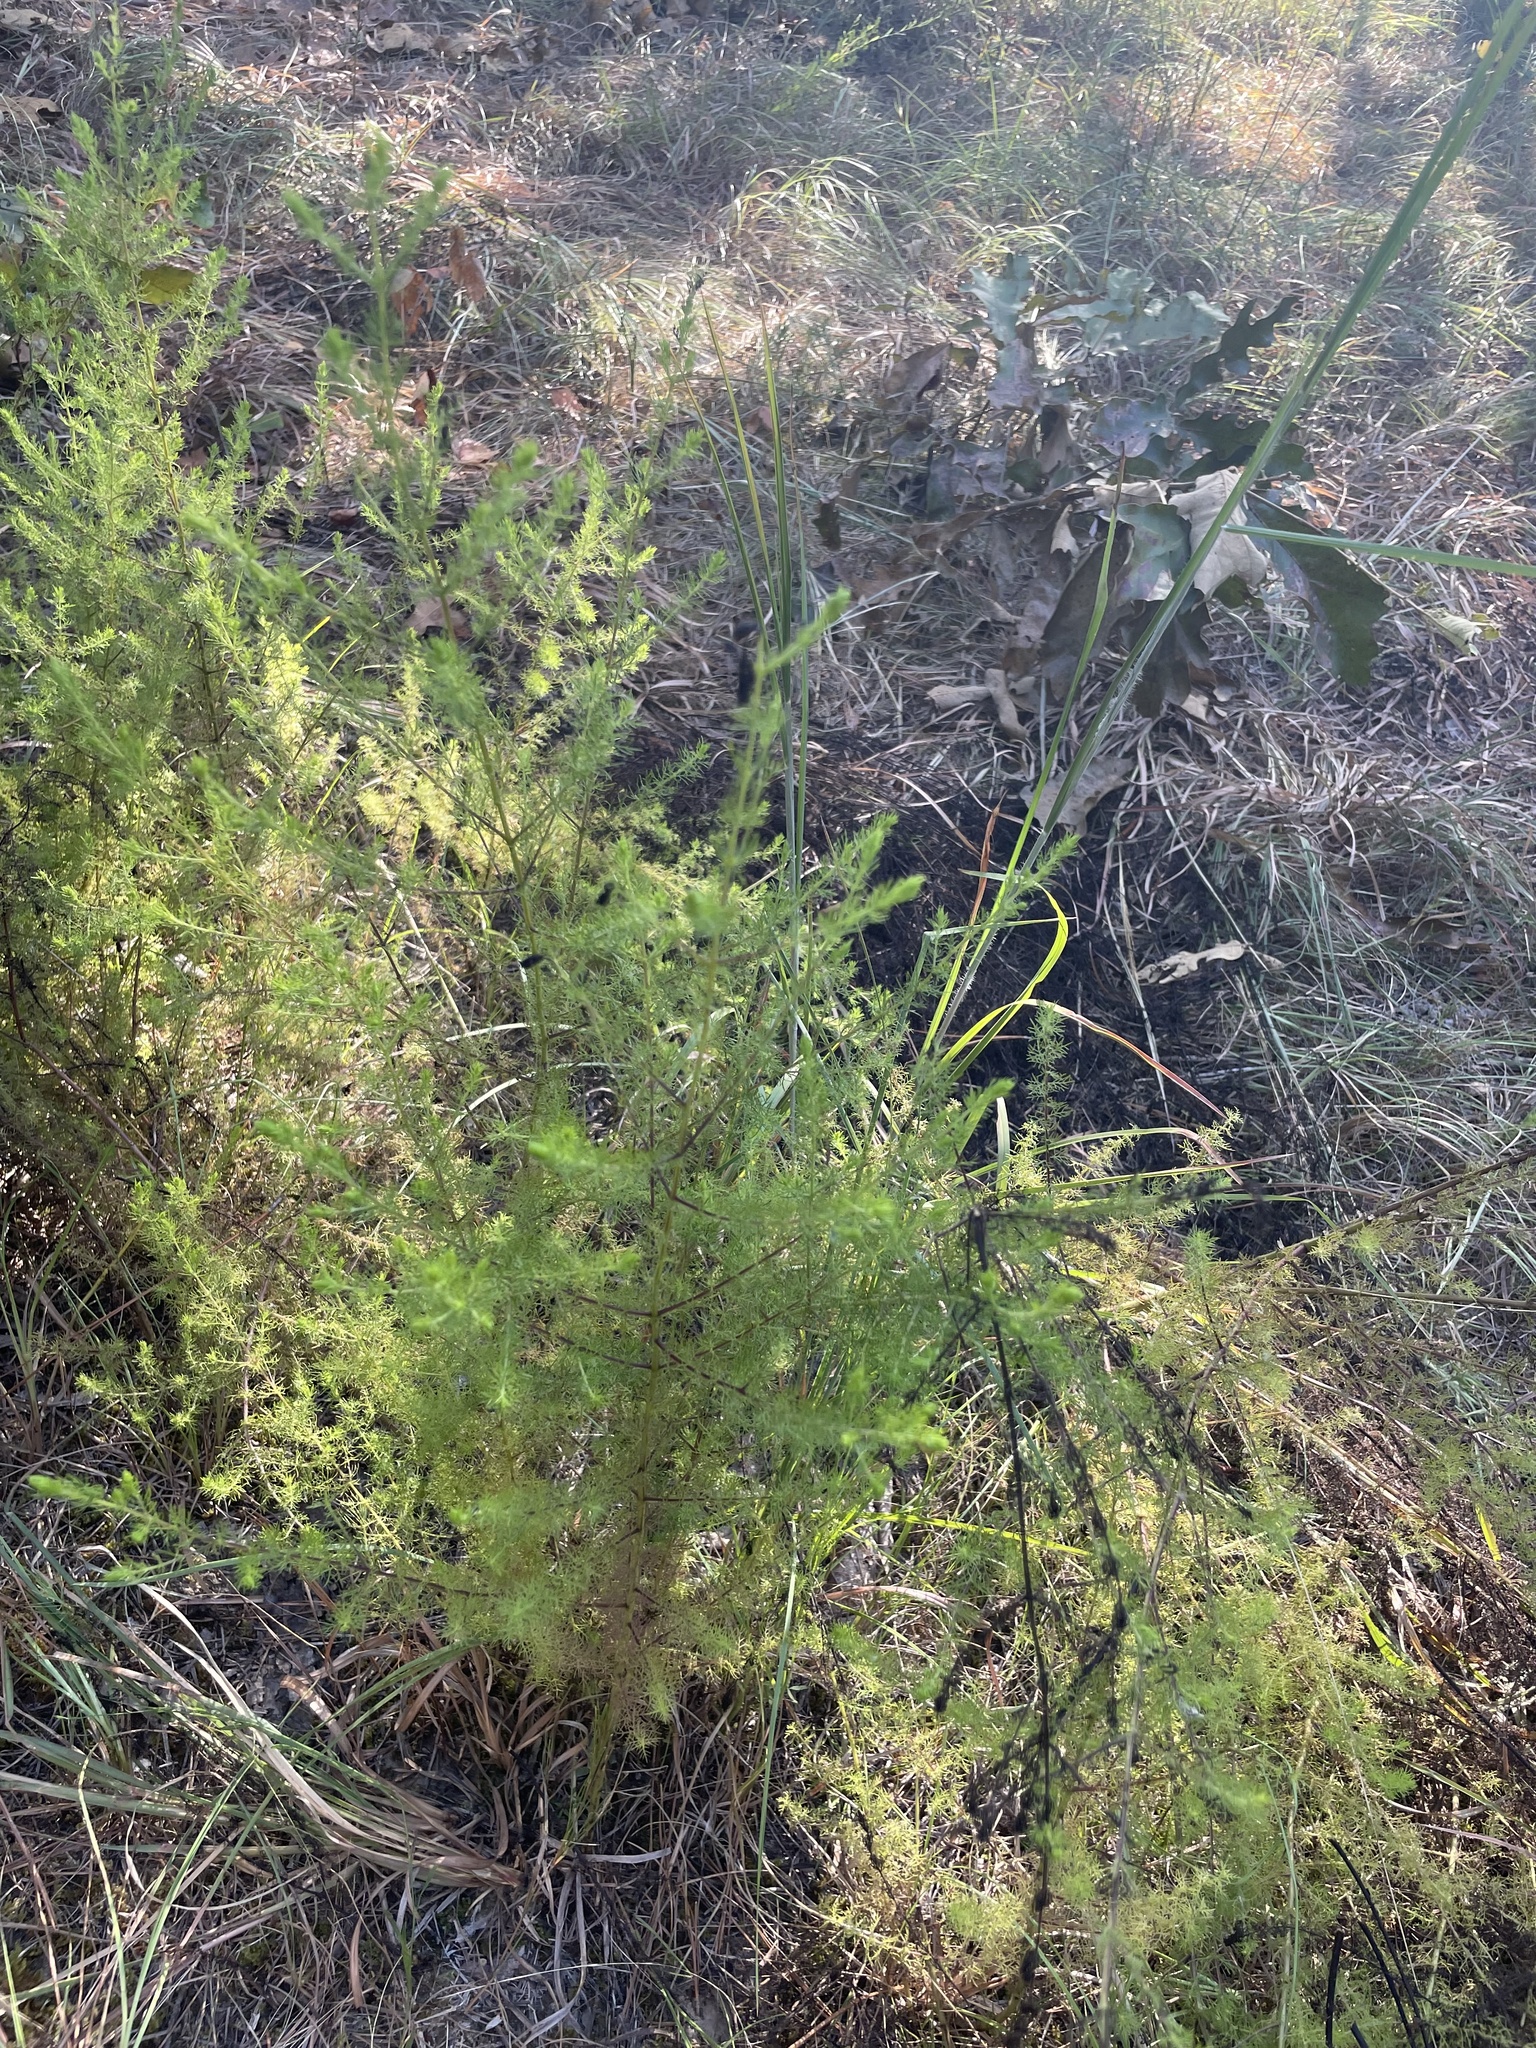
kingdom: Plantae
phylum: Tracheophyta
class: Magnoliopsida
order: Lamiales
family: Orobanchaceae
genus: Seymeria
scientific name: Seymeria cassioides
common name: Yaupon black-senna
